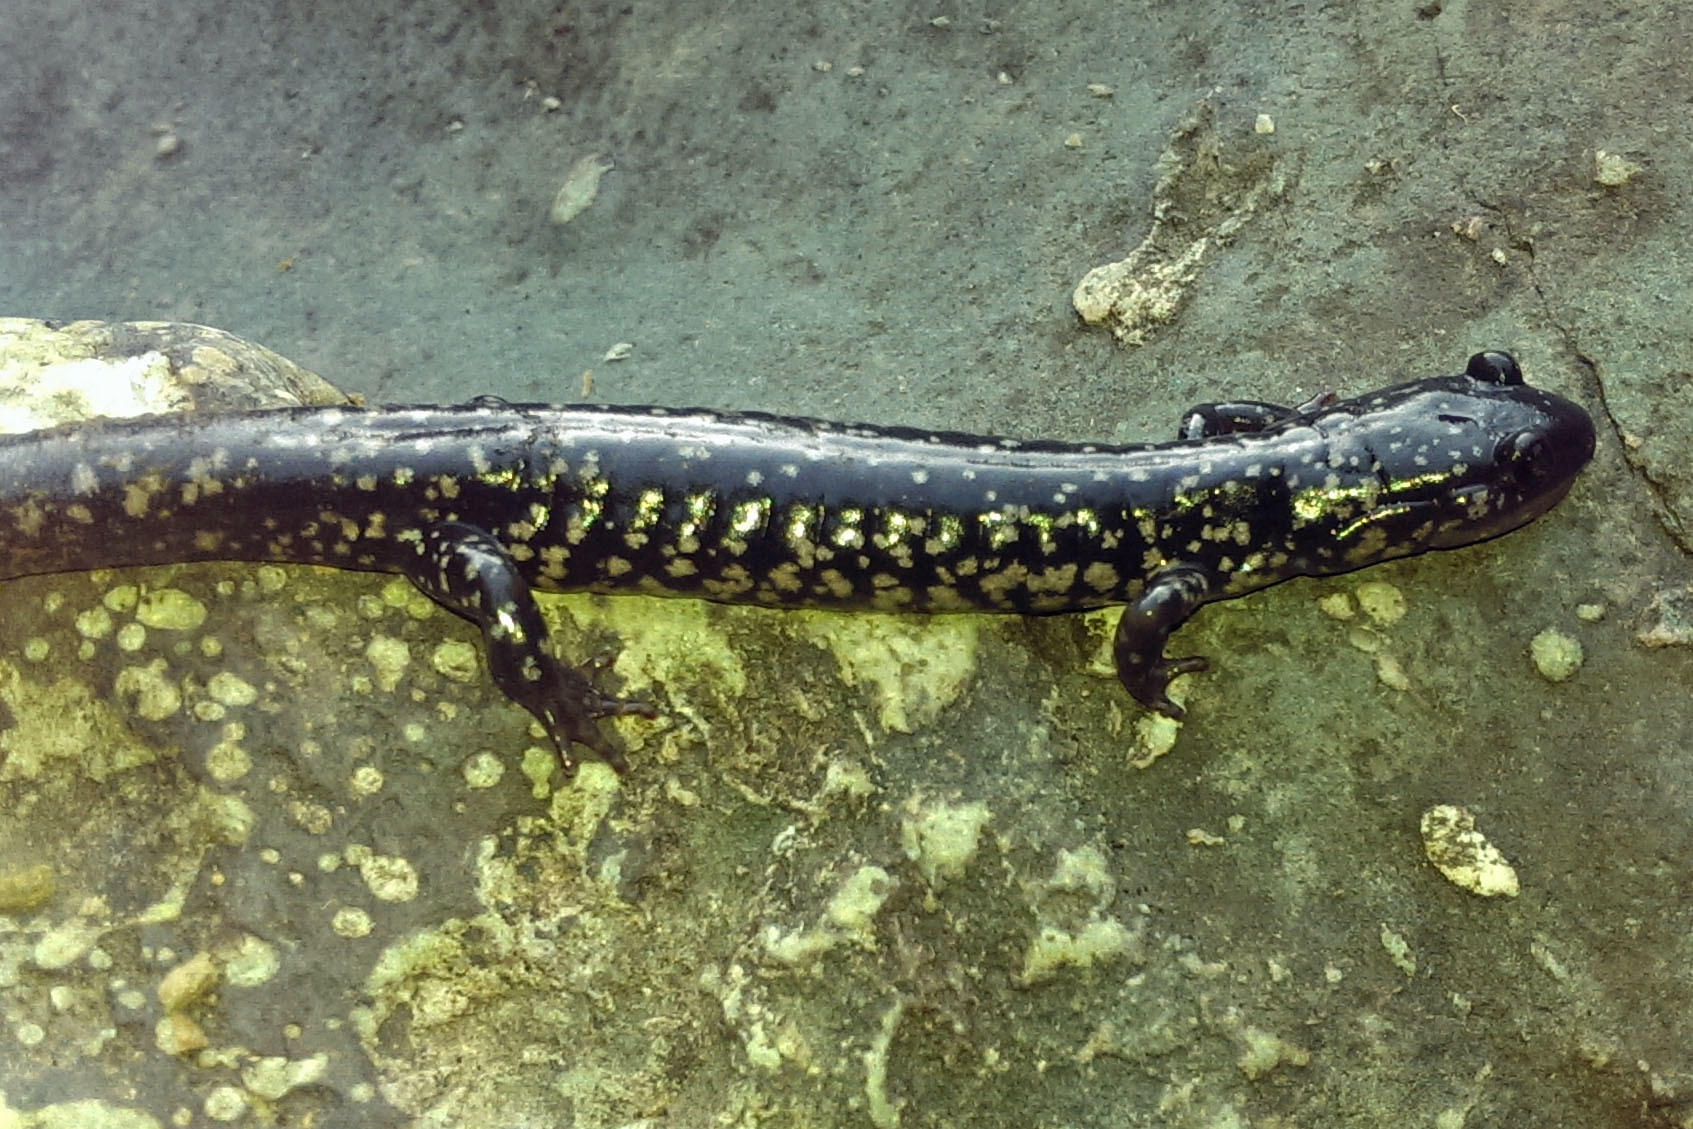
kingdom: Animalia
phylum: Chordata
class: Amphibia
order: Caudata
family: Plethodontidae
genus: Plethodon
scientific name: Plethodon cylindraceus
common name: White-spotted slimy salamander
